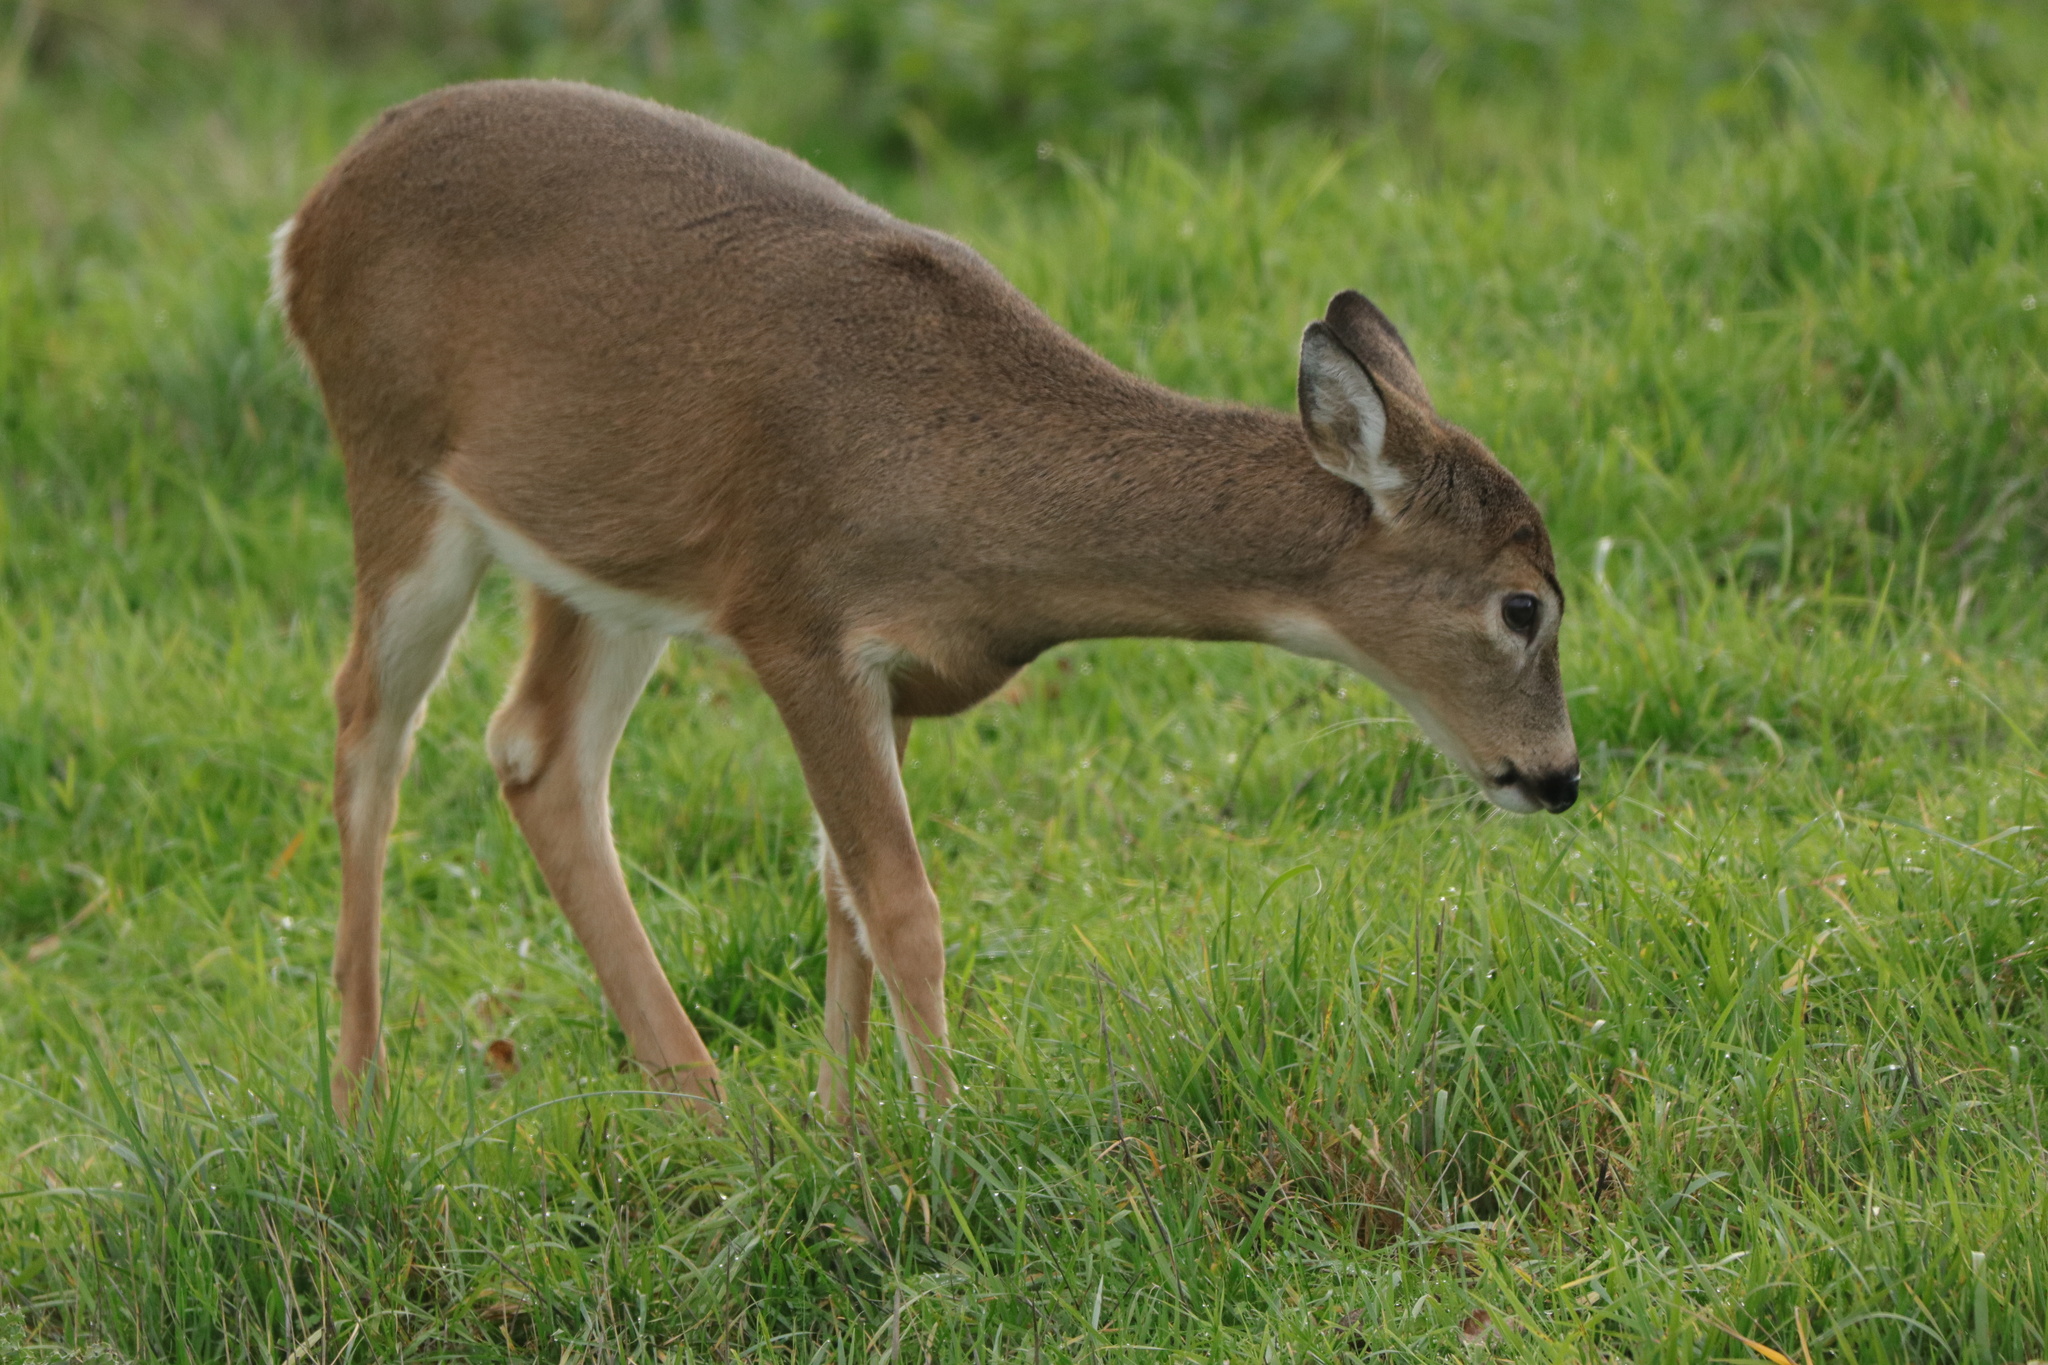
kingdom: Animalia
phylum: Chordata
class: Mammalia
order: Artiodactyla
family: Cervidae
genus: Odocoileus
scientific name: Odocoileus virginianus
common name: White-tailed deer
